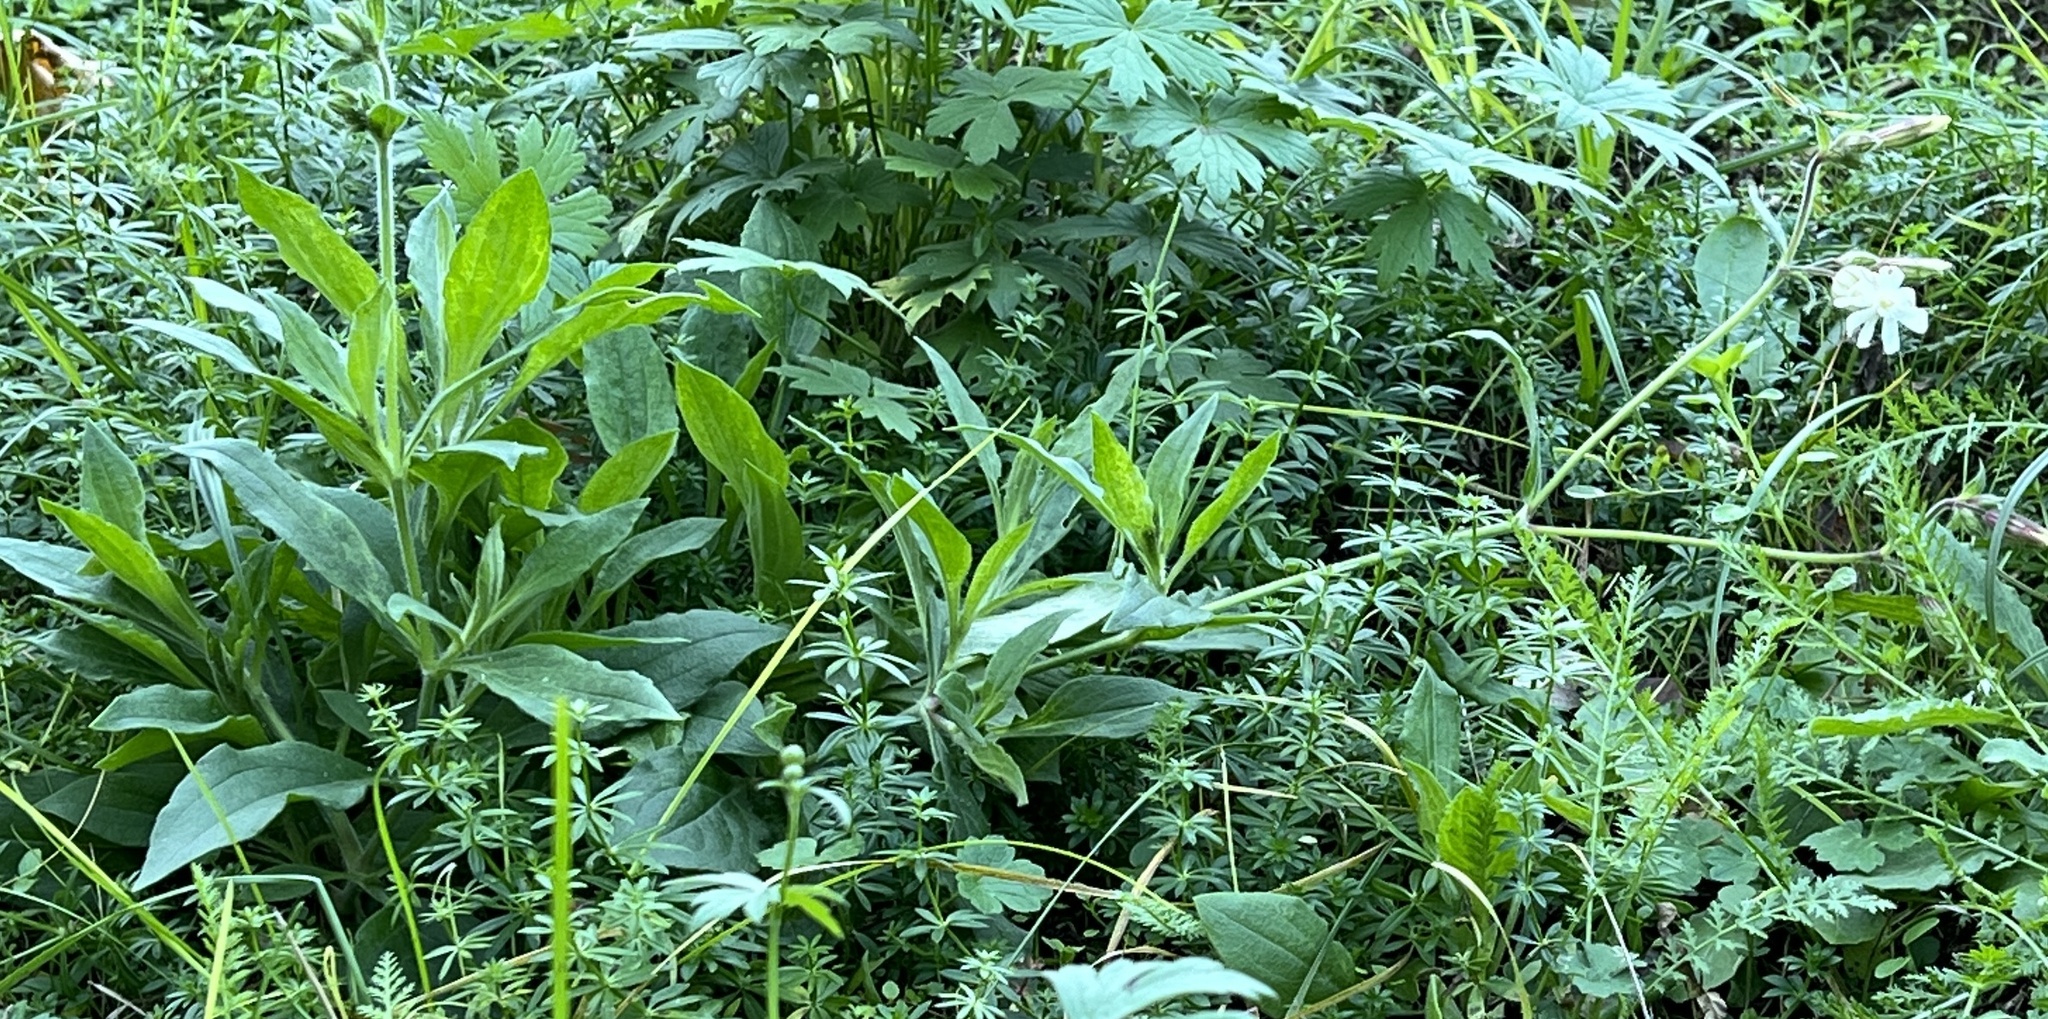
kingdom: Plantae
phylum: Tracheophyta
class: Magnoliopsida
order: Caryophyllales
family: Caryophyllaceae
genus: Silene
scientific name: Silene latifolia
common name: White campion
